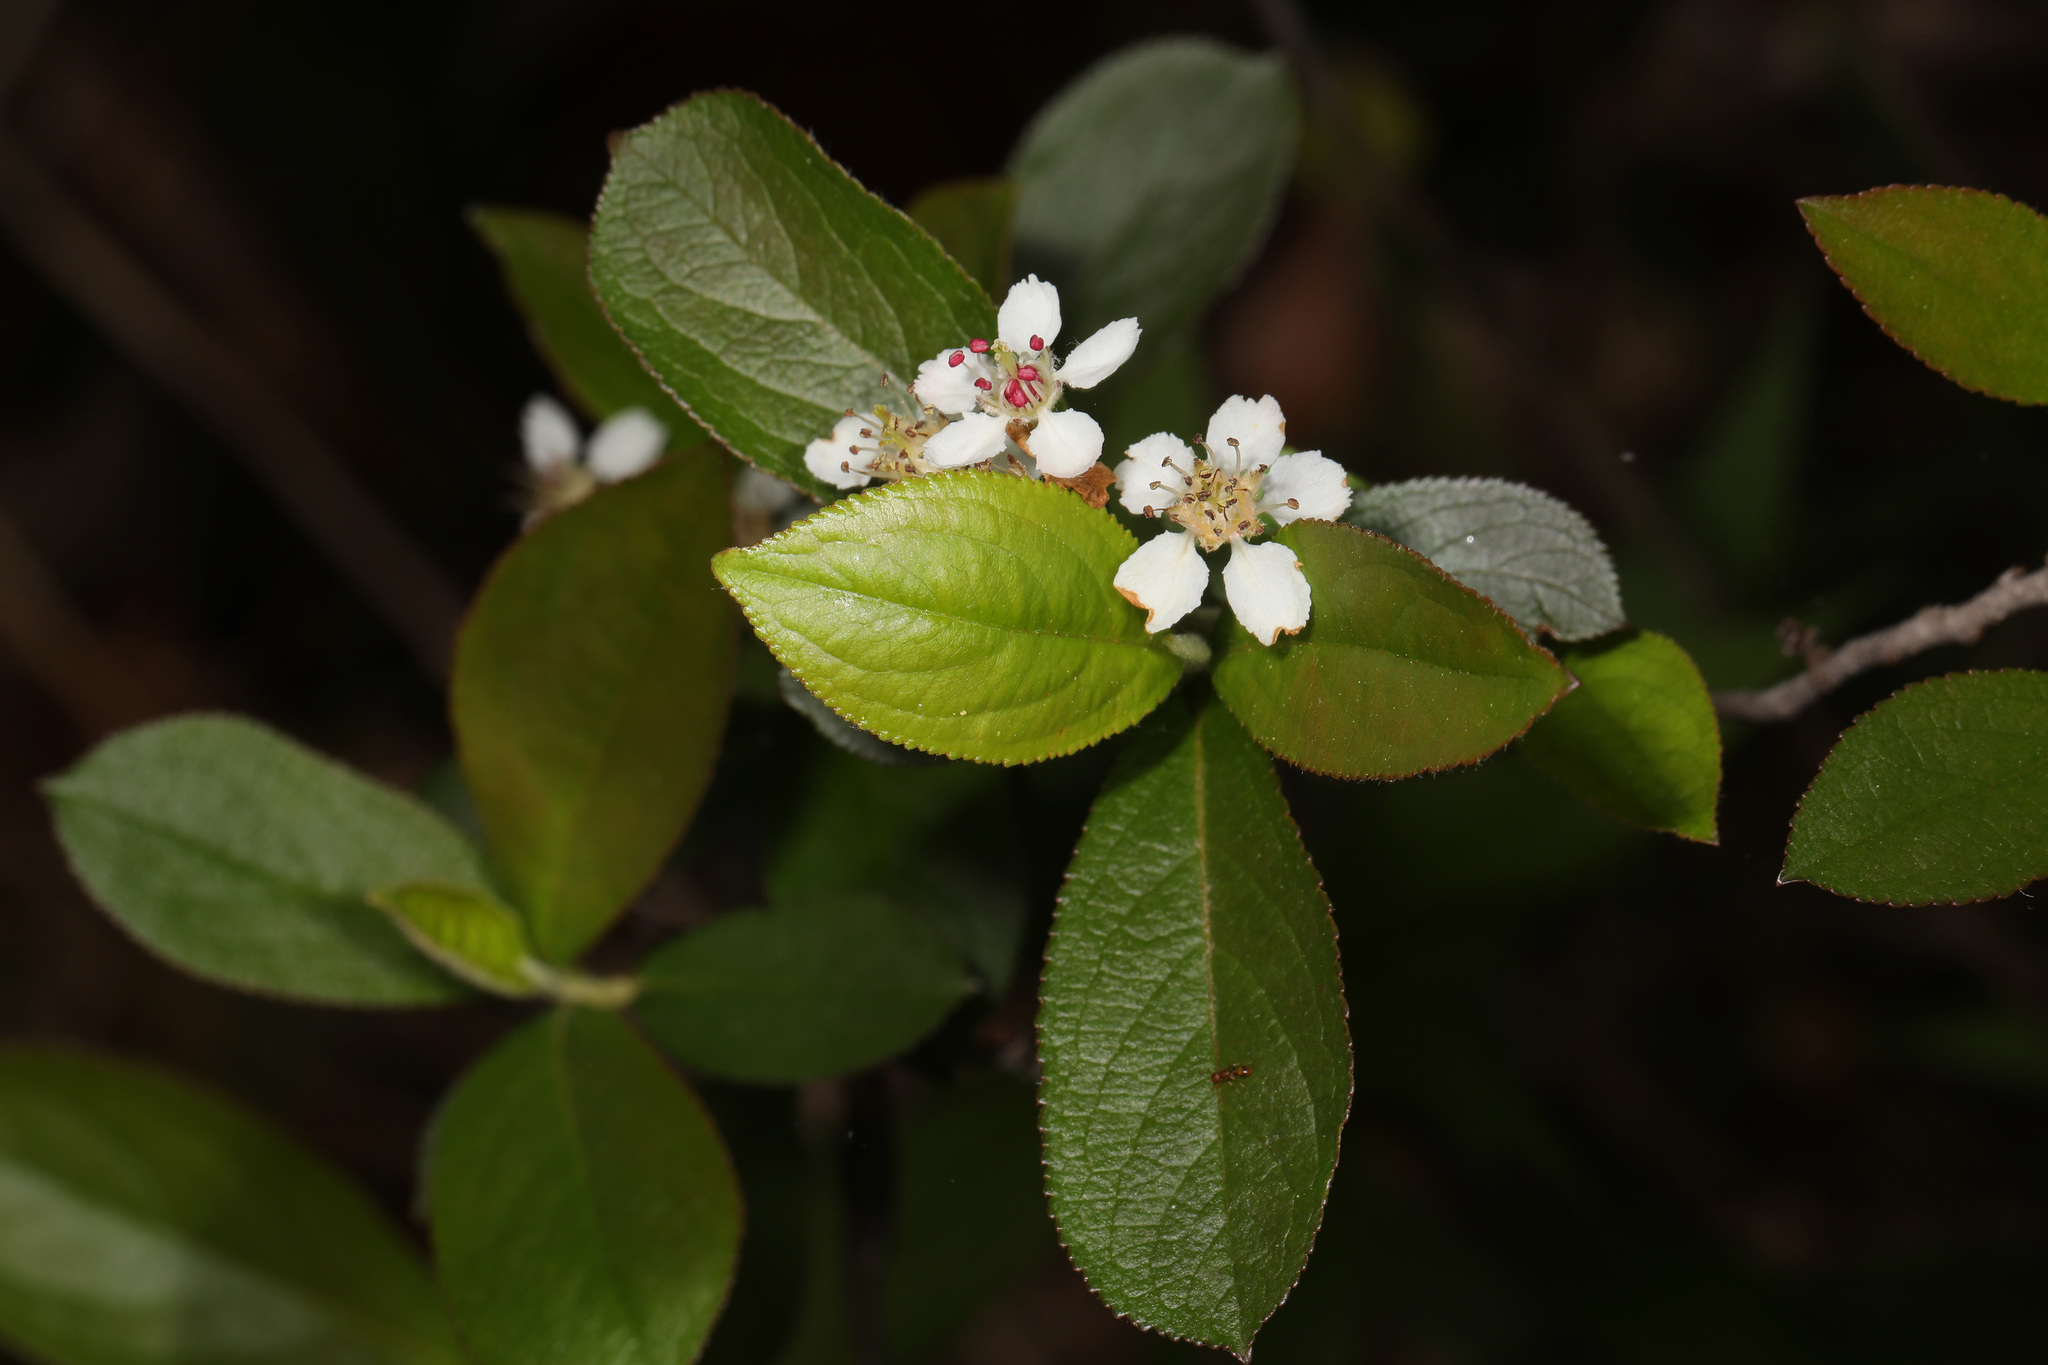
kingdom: Plantae
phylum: Tracheophyta
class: Magnoliopsida
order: Rosales
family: Rosaceae
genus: Aronia
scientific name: Aronia arbutifolia
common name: Red chokeberry
